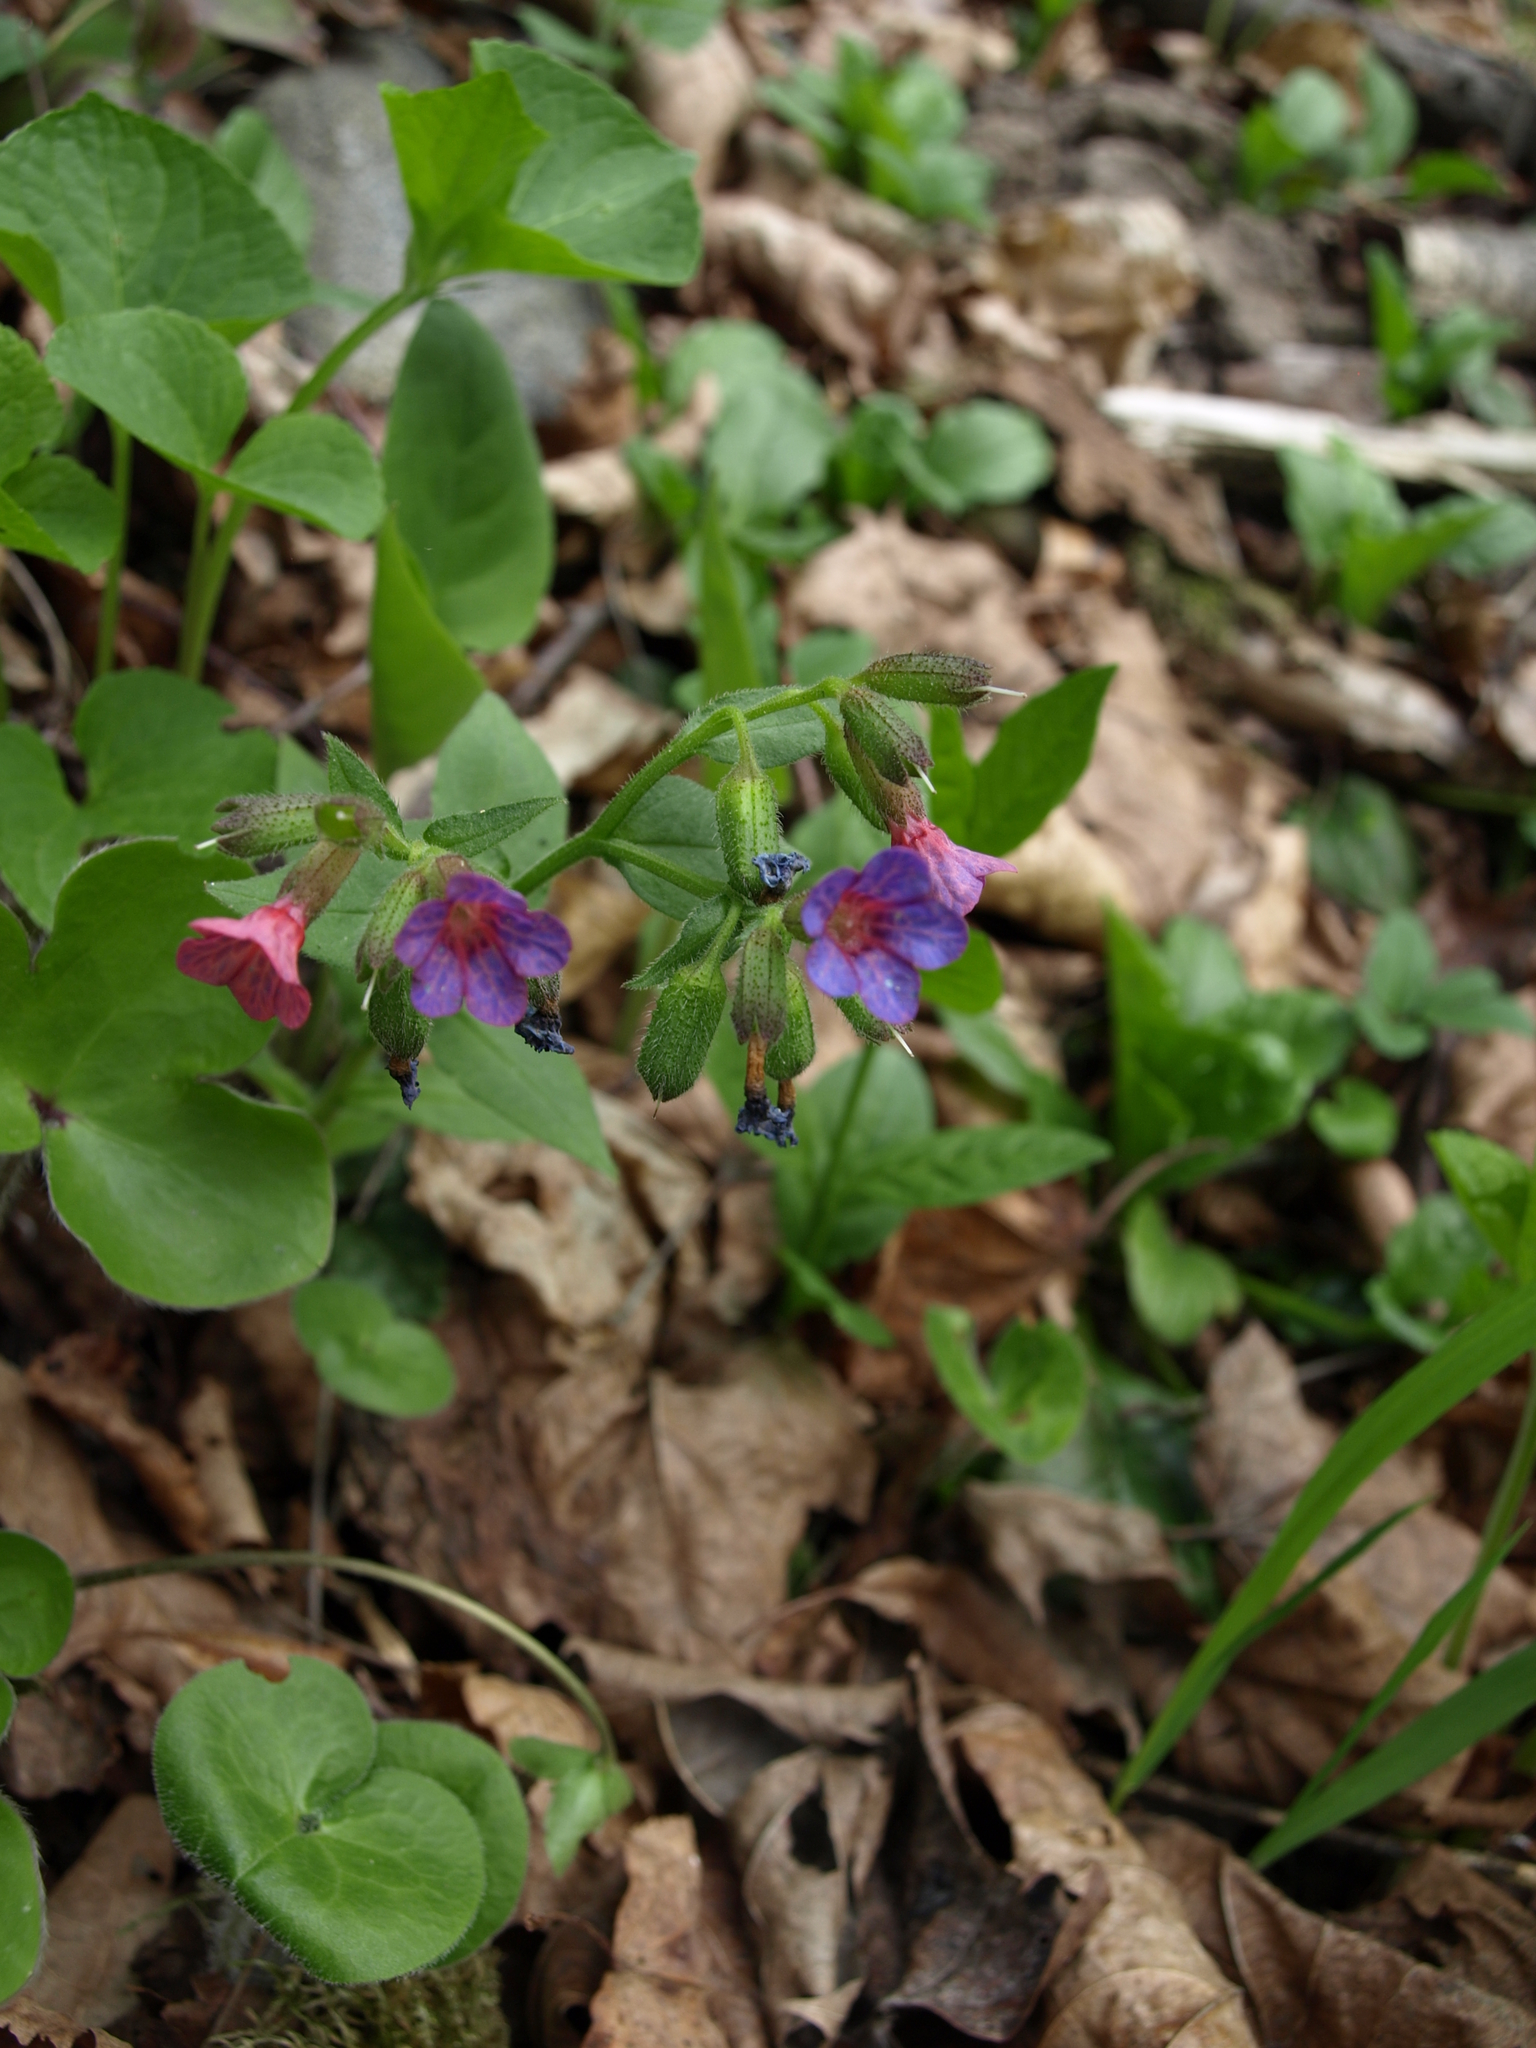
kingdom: Plantae
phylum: Tracheophyta
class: Magnoliopsida
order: Boraginales
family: Boraginaceae
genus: Pulmonaria
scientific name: Pulmonaria obscura
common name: Suffolk lungwort
